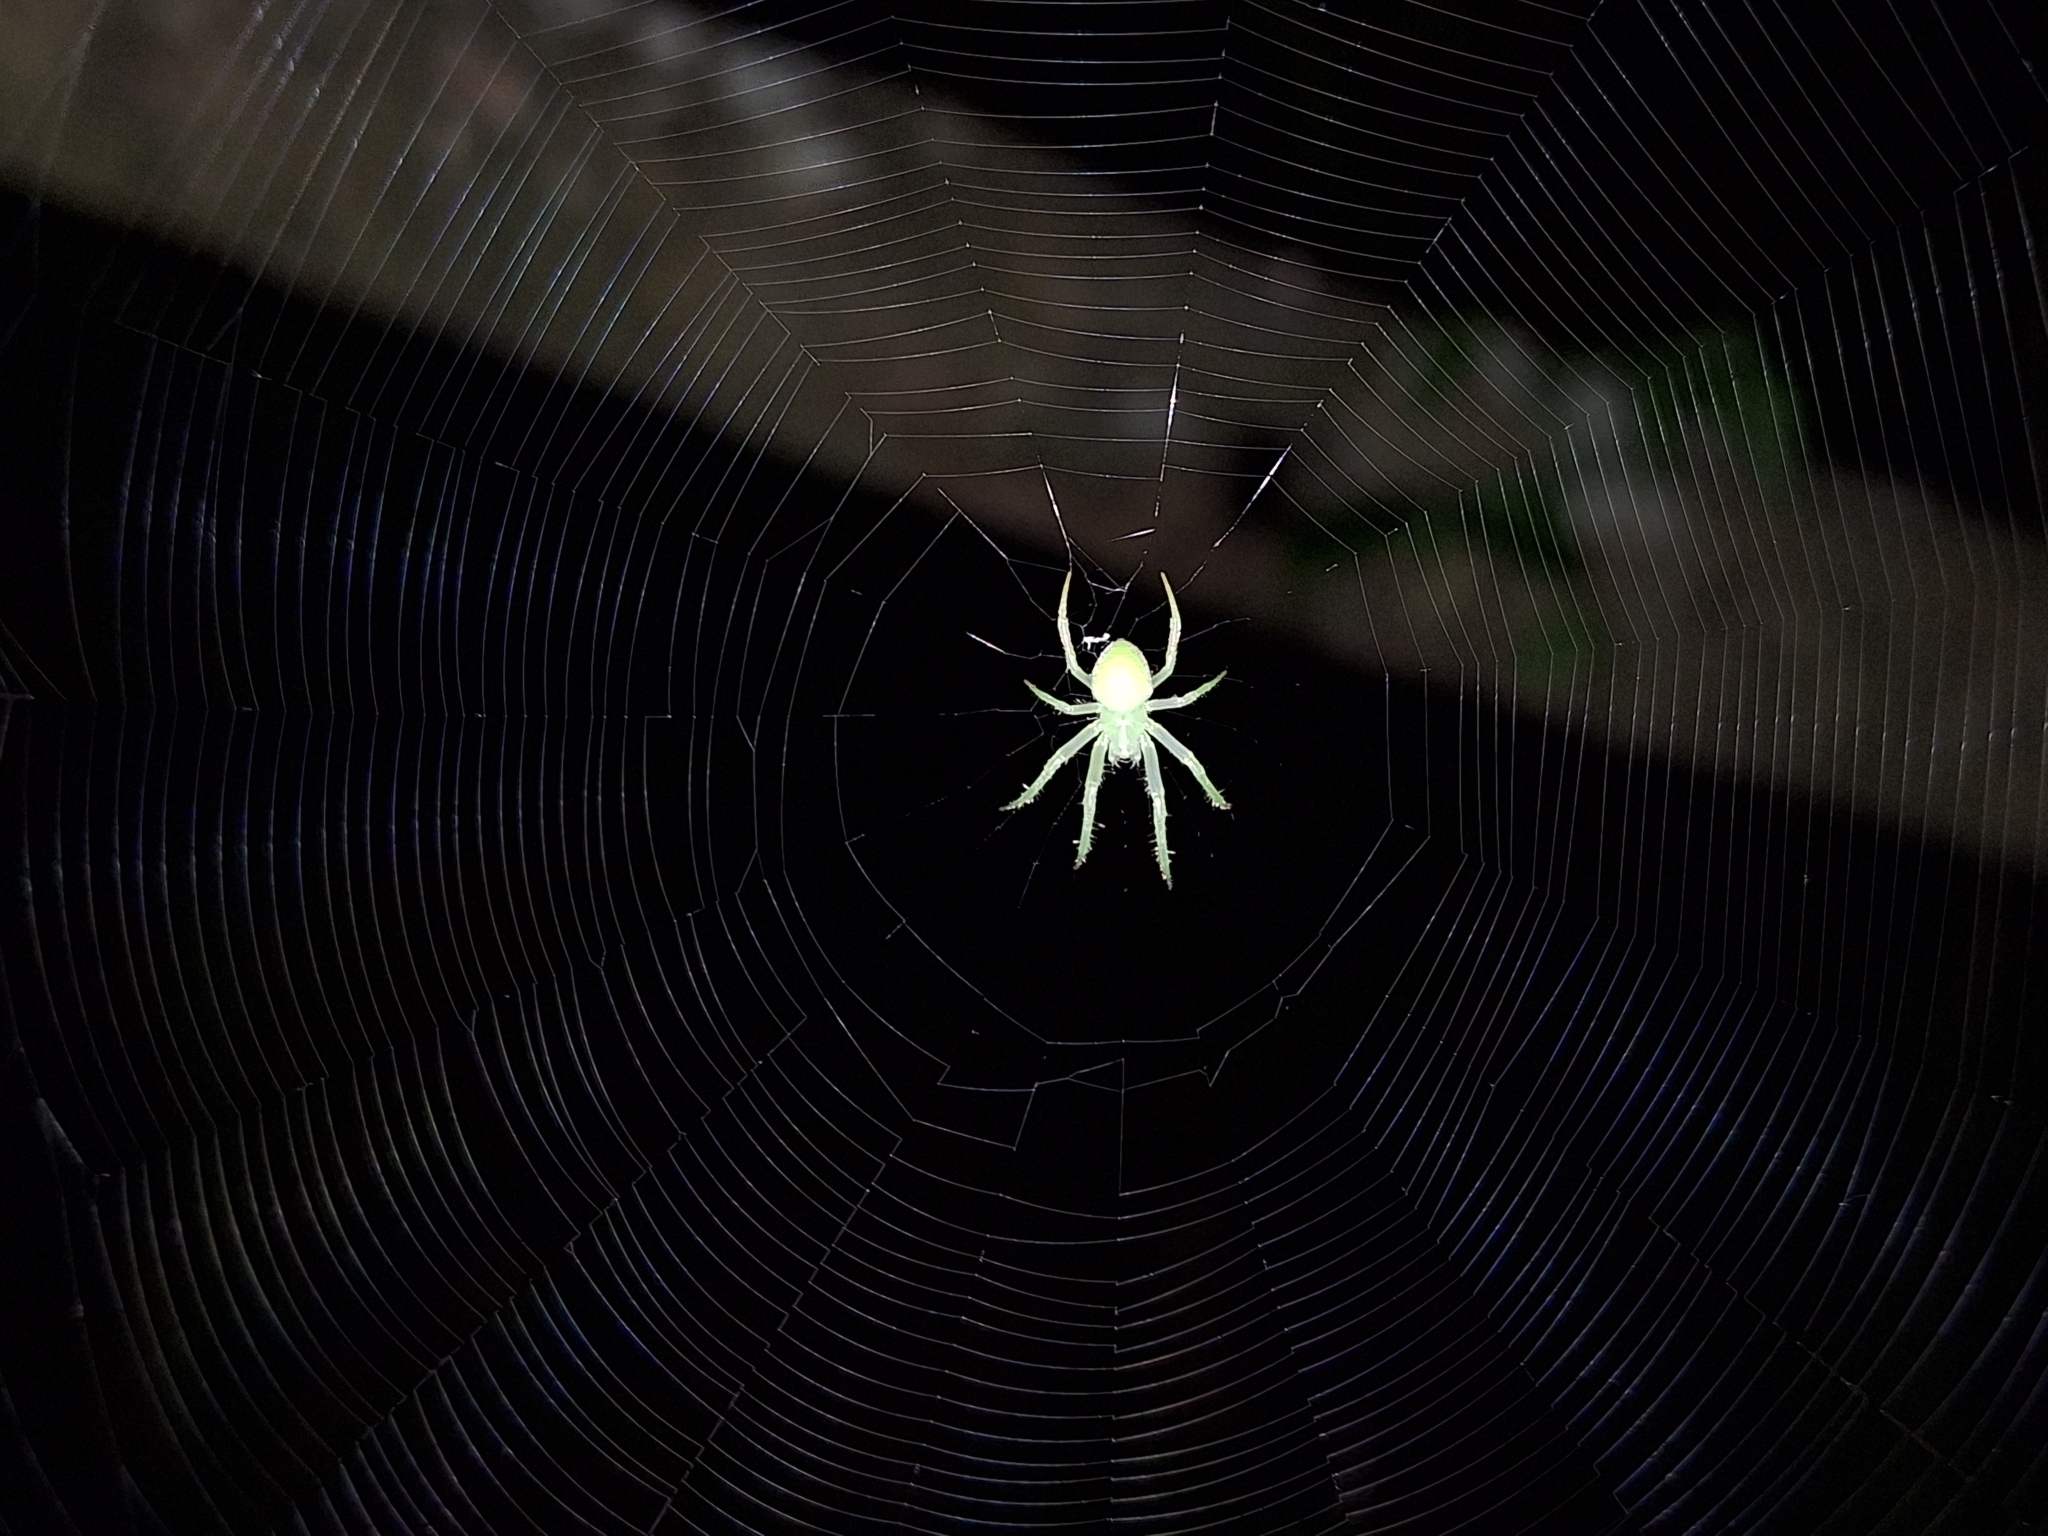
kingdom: Animalia
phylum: Arthropoda
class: Arachnida
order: Araneae
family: Araneidae
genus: Araneus
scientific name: Araneus uniformis
